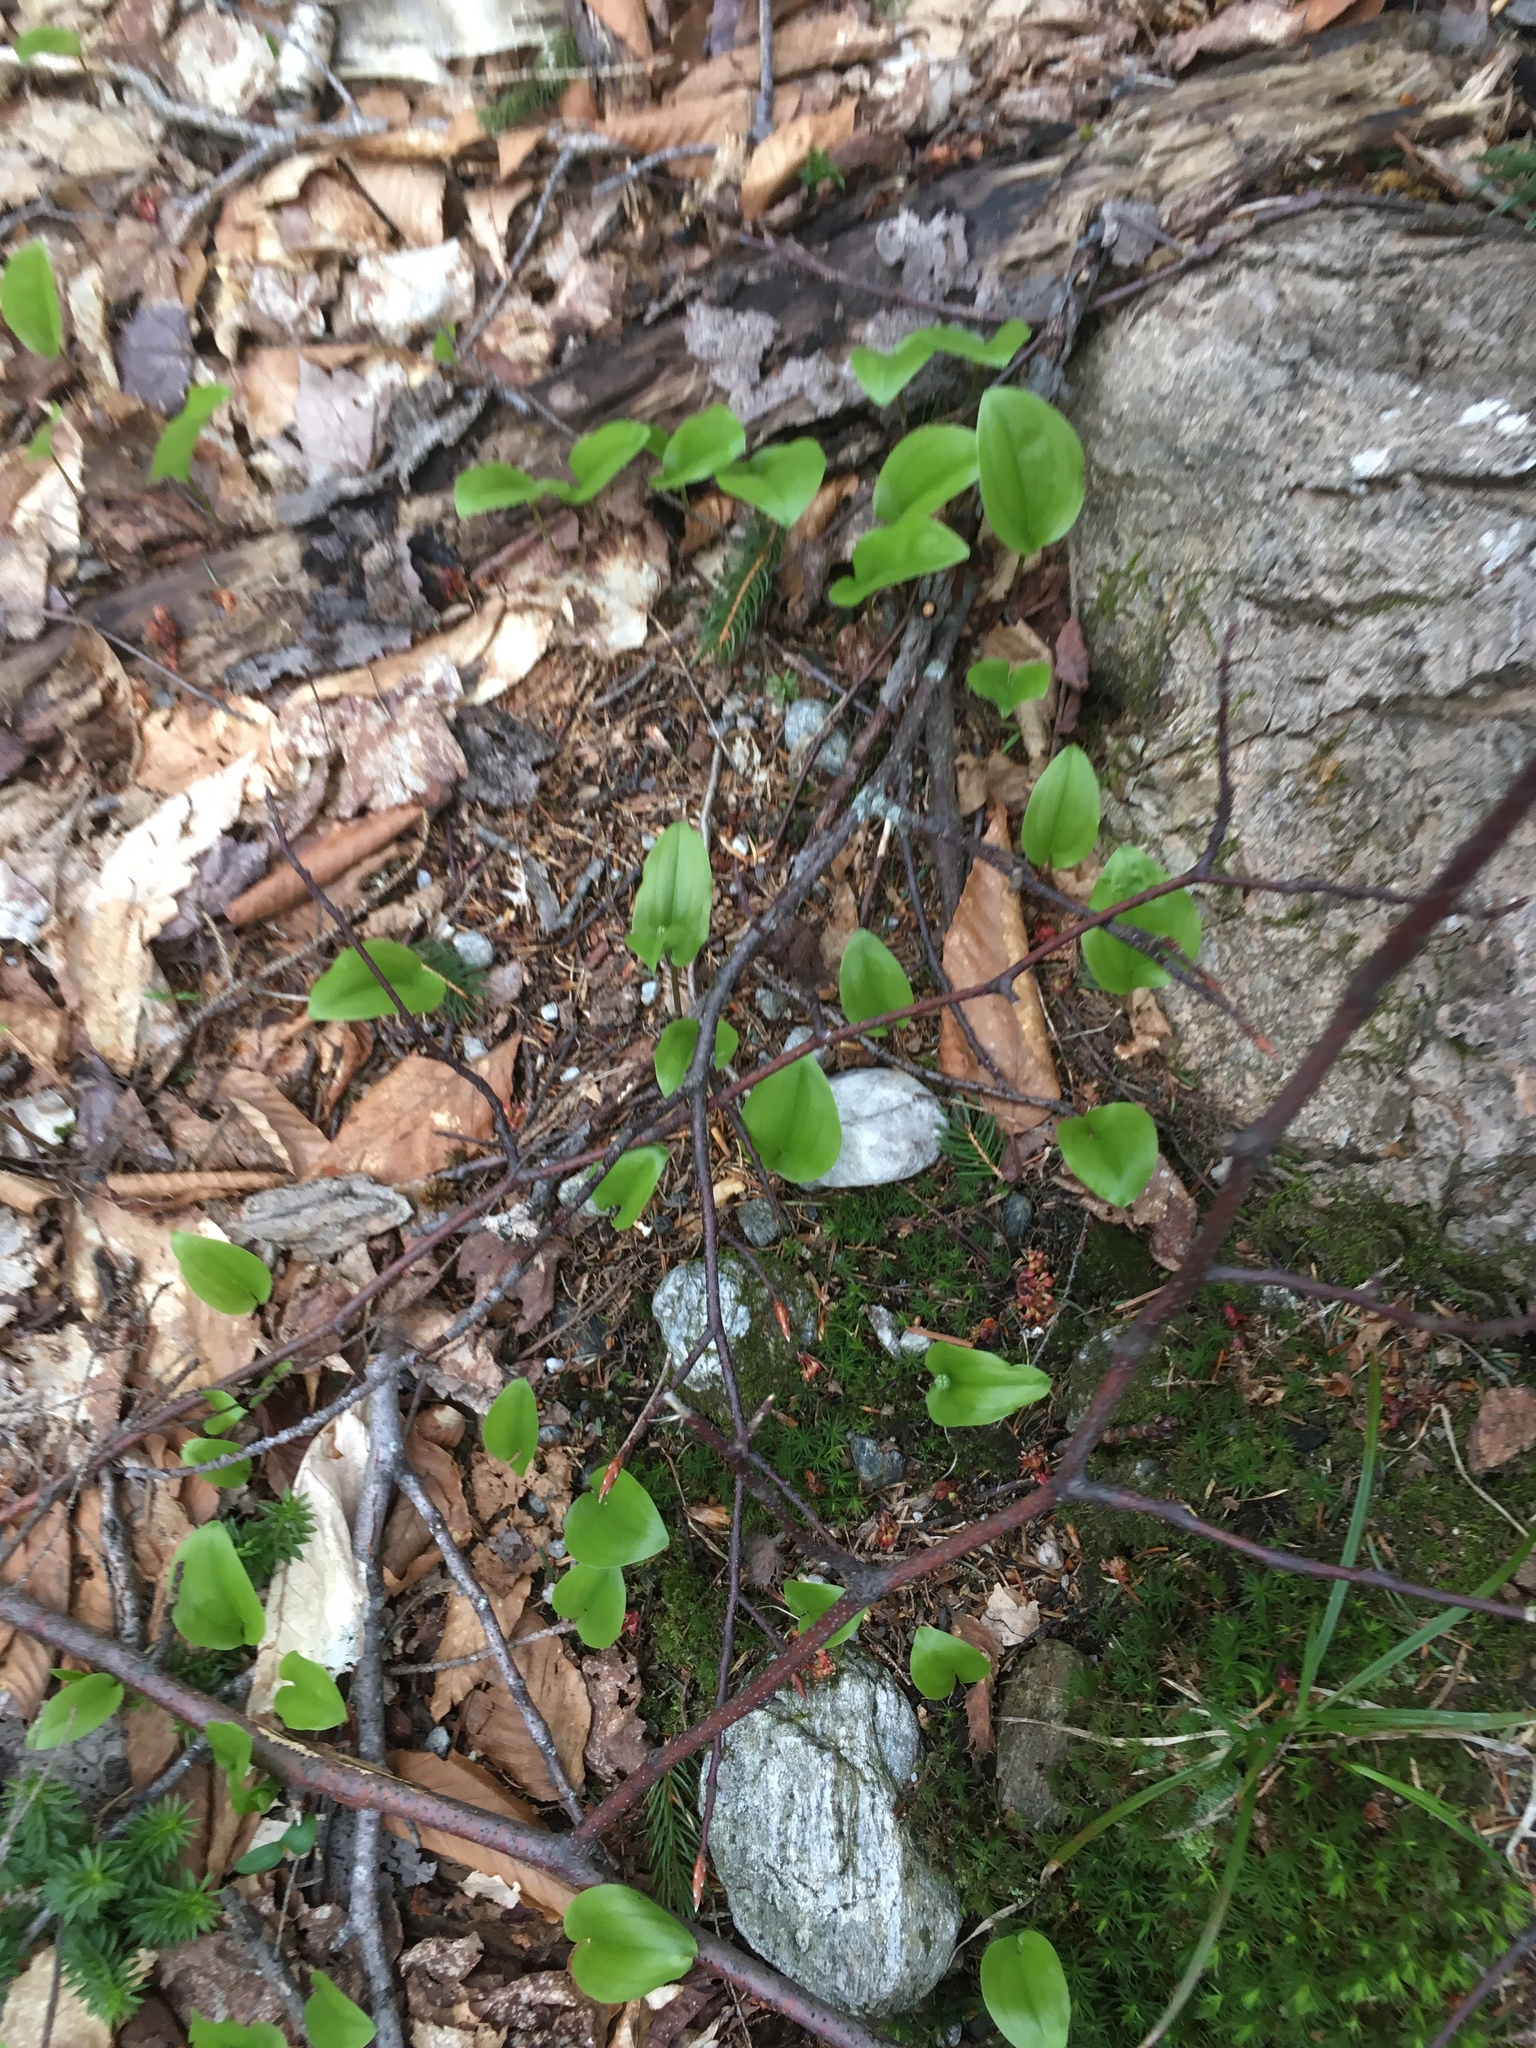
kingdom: Plantae
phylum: Tracheophyta
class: Liliopsida
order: Asparagales
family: Asparagaceae
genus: Maianthemum
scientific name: Maianthemum canadense
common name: False lily-of-the-valley
